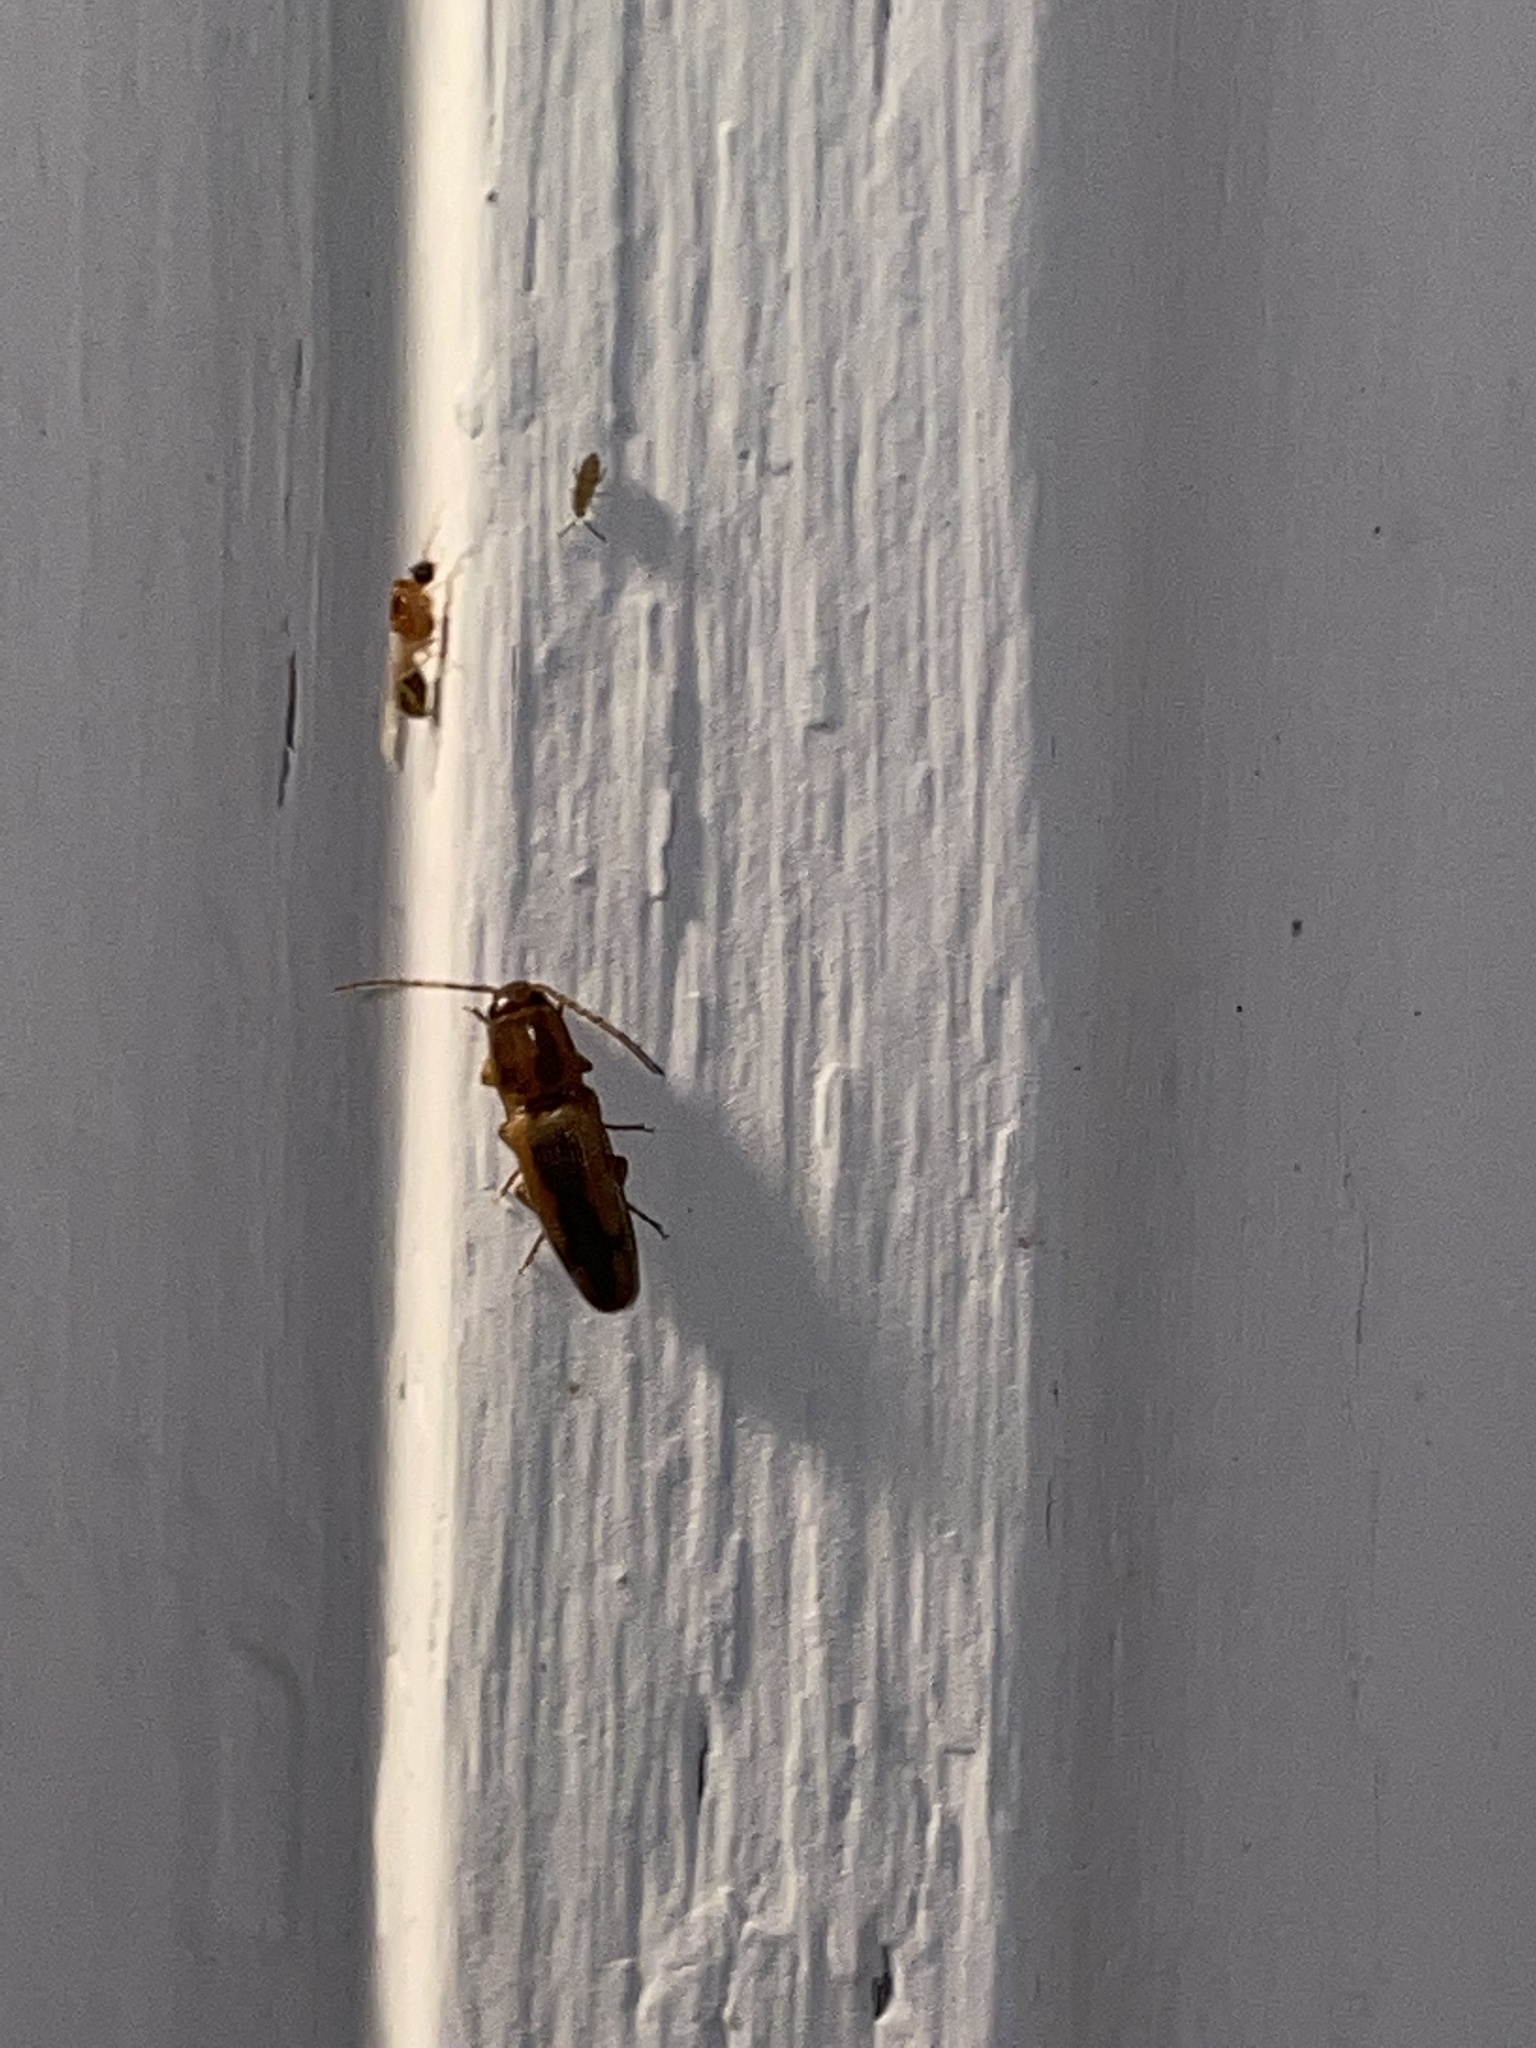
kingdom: Animalia
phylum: Arthropoda
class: Insecta
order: Coleoptera
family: Elateridae
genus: Monocrepidius
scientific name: Monocrepidius
